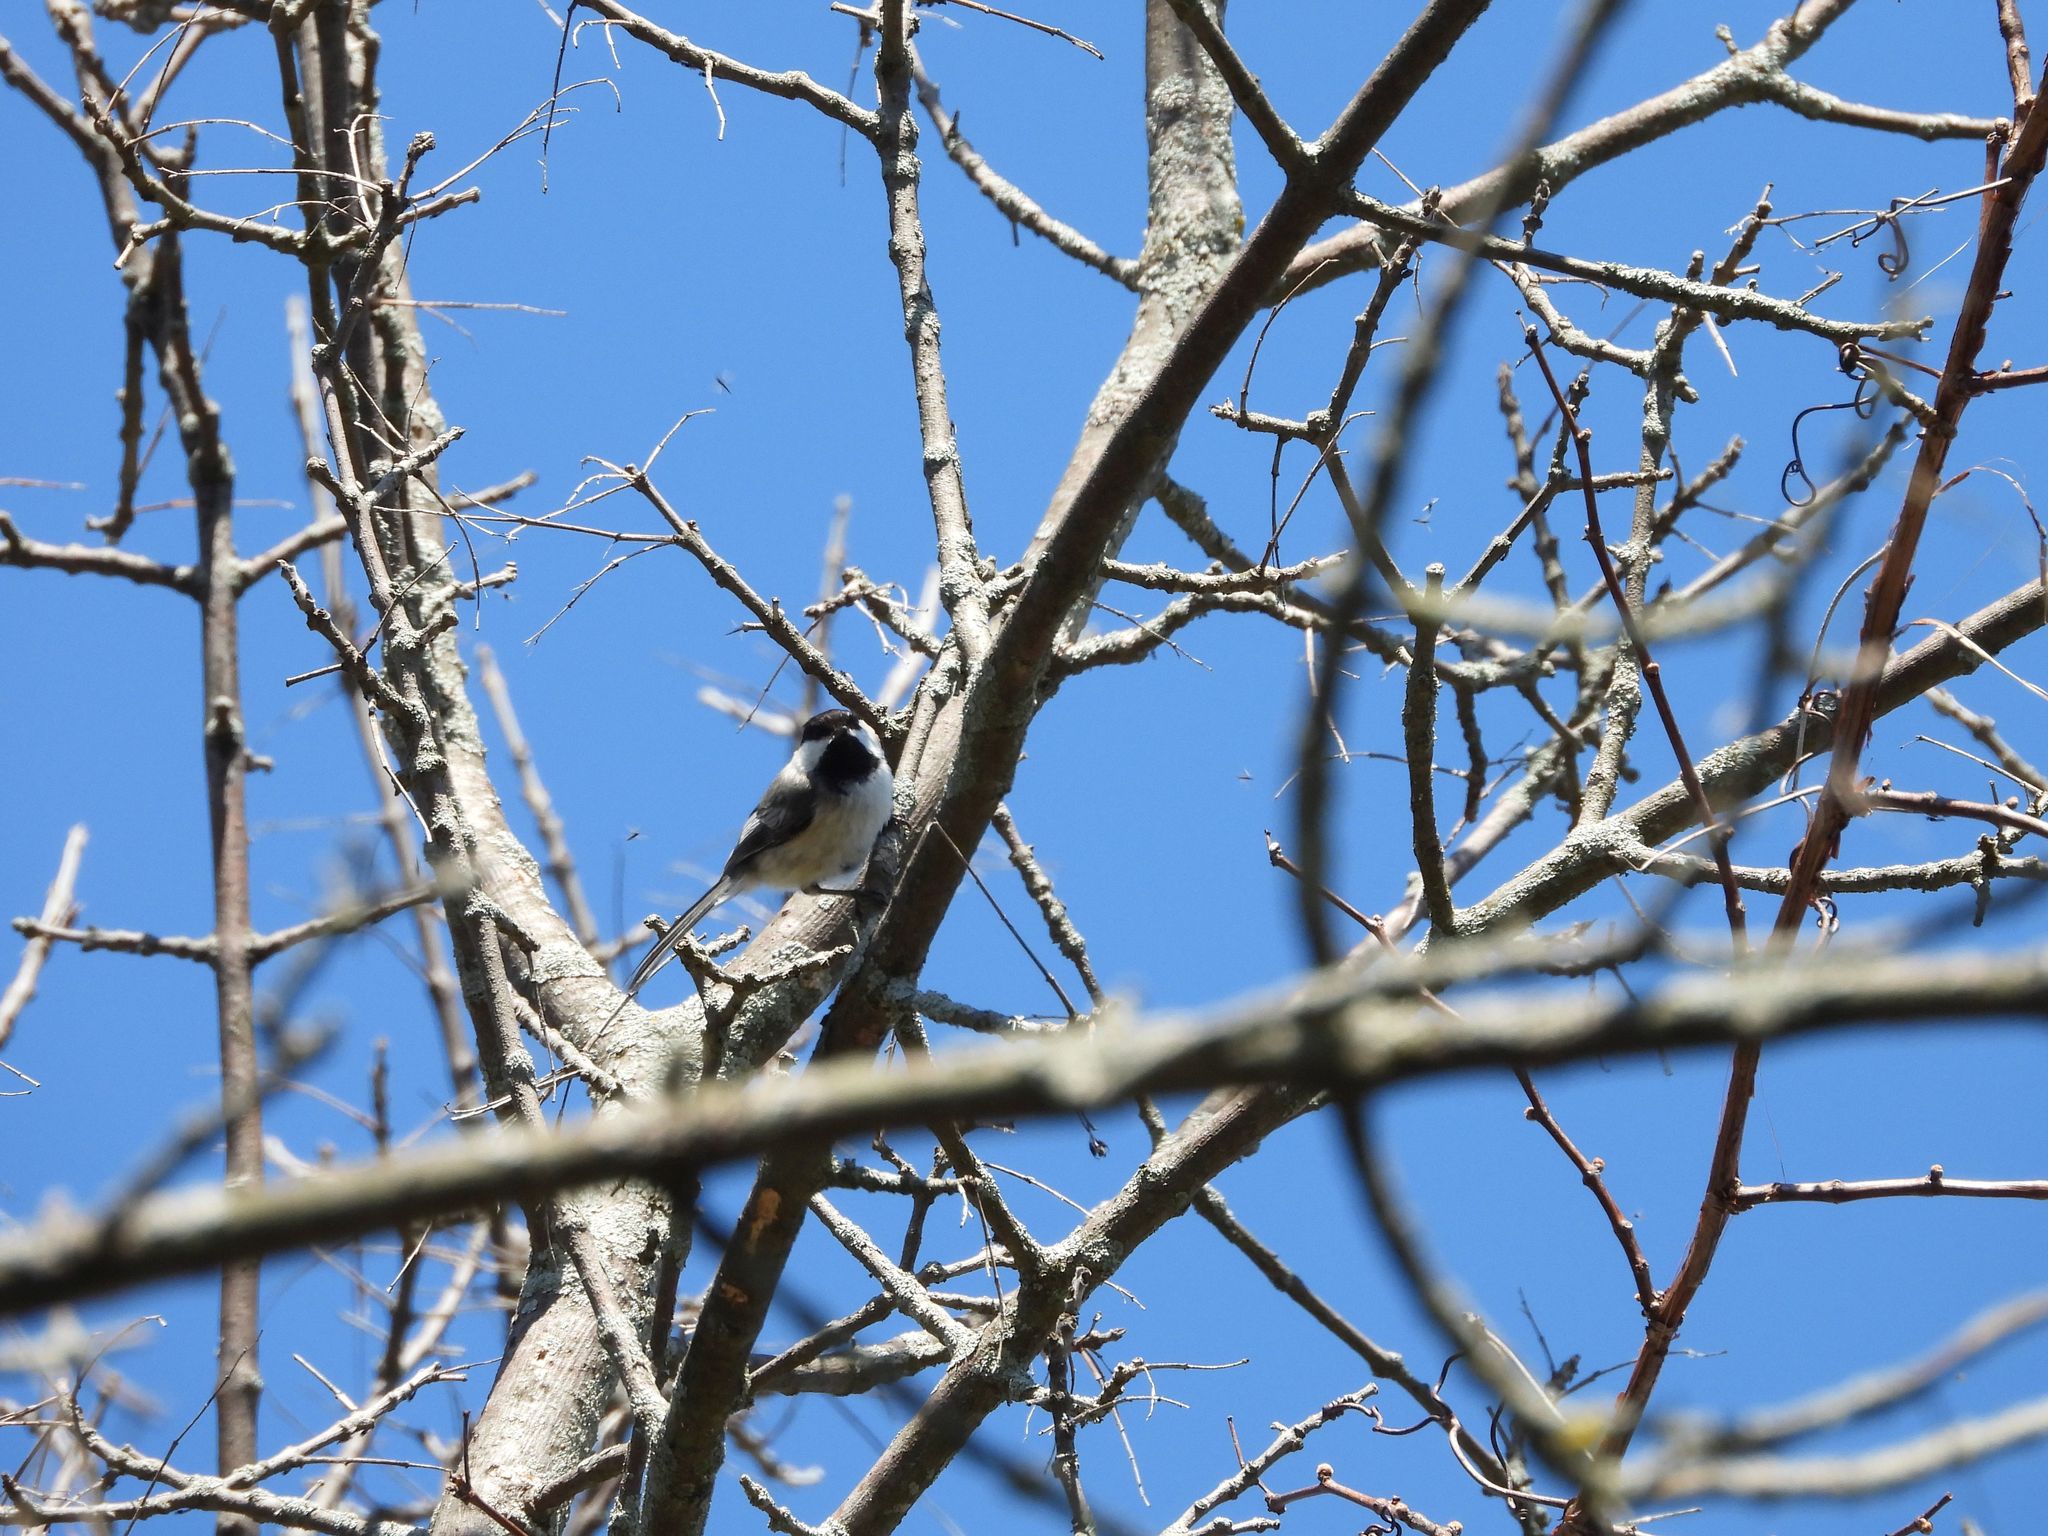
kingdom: Animalia
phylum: Chordata
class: Aves
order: Passeriformes
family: Paridae
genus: Poecile
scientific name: Poecile atricapillus
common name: Black-capped chickadee
